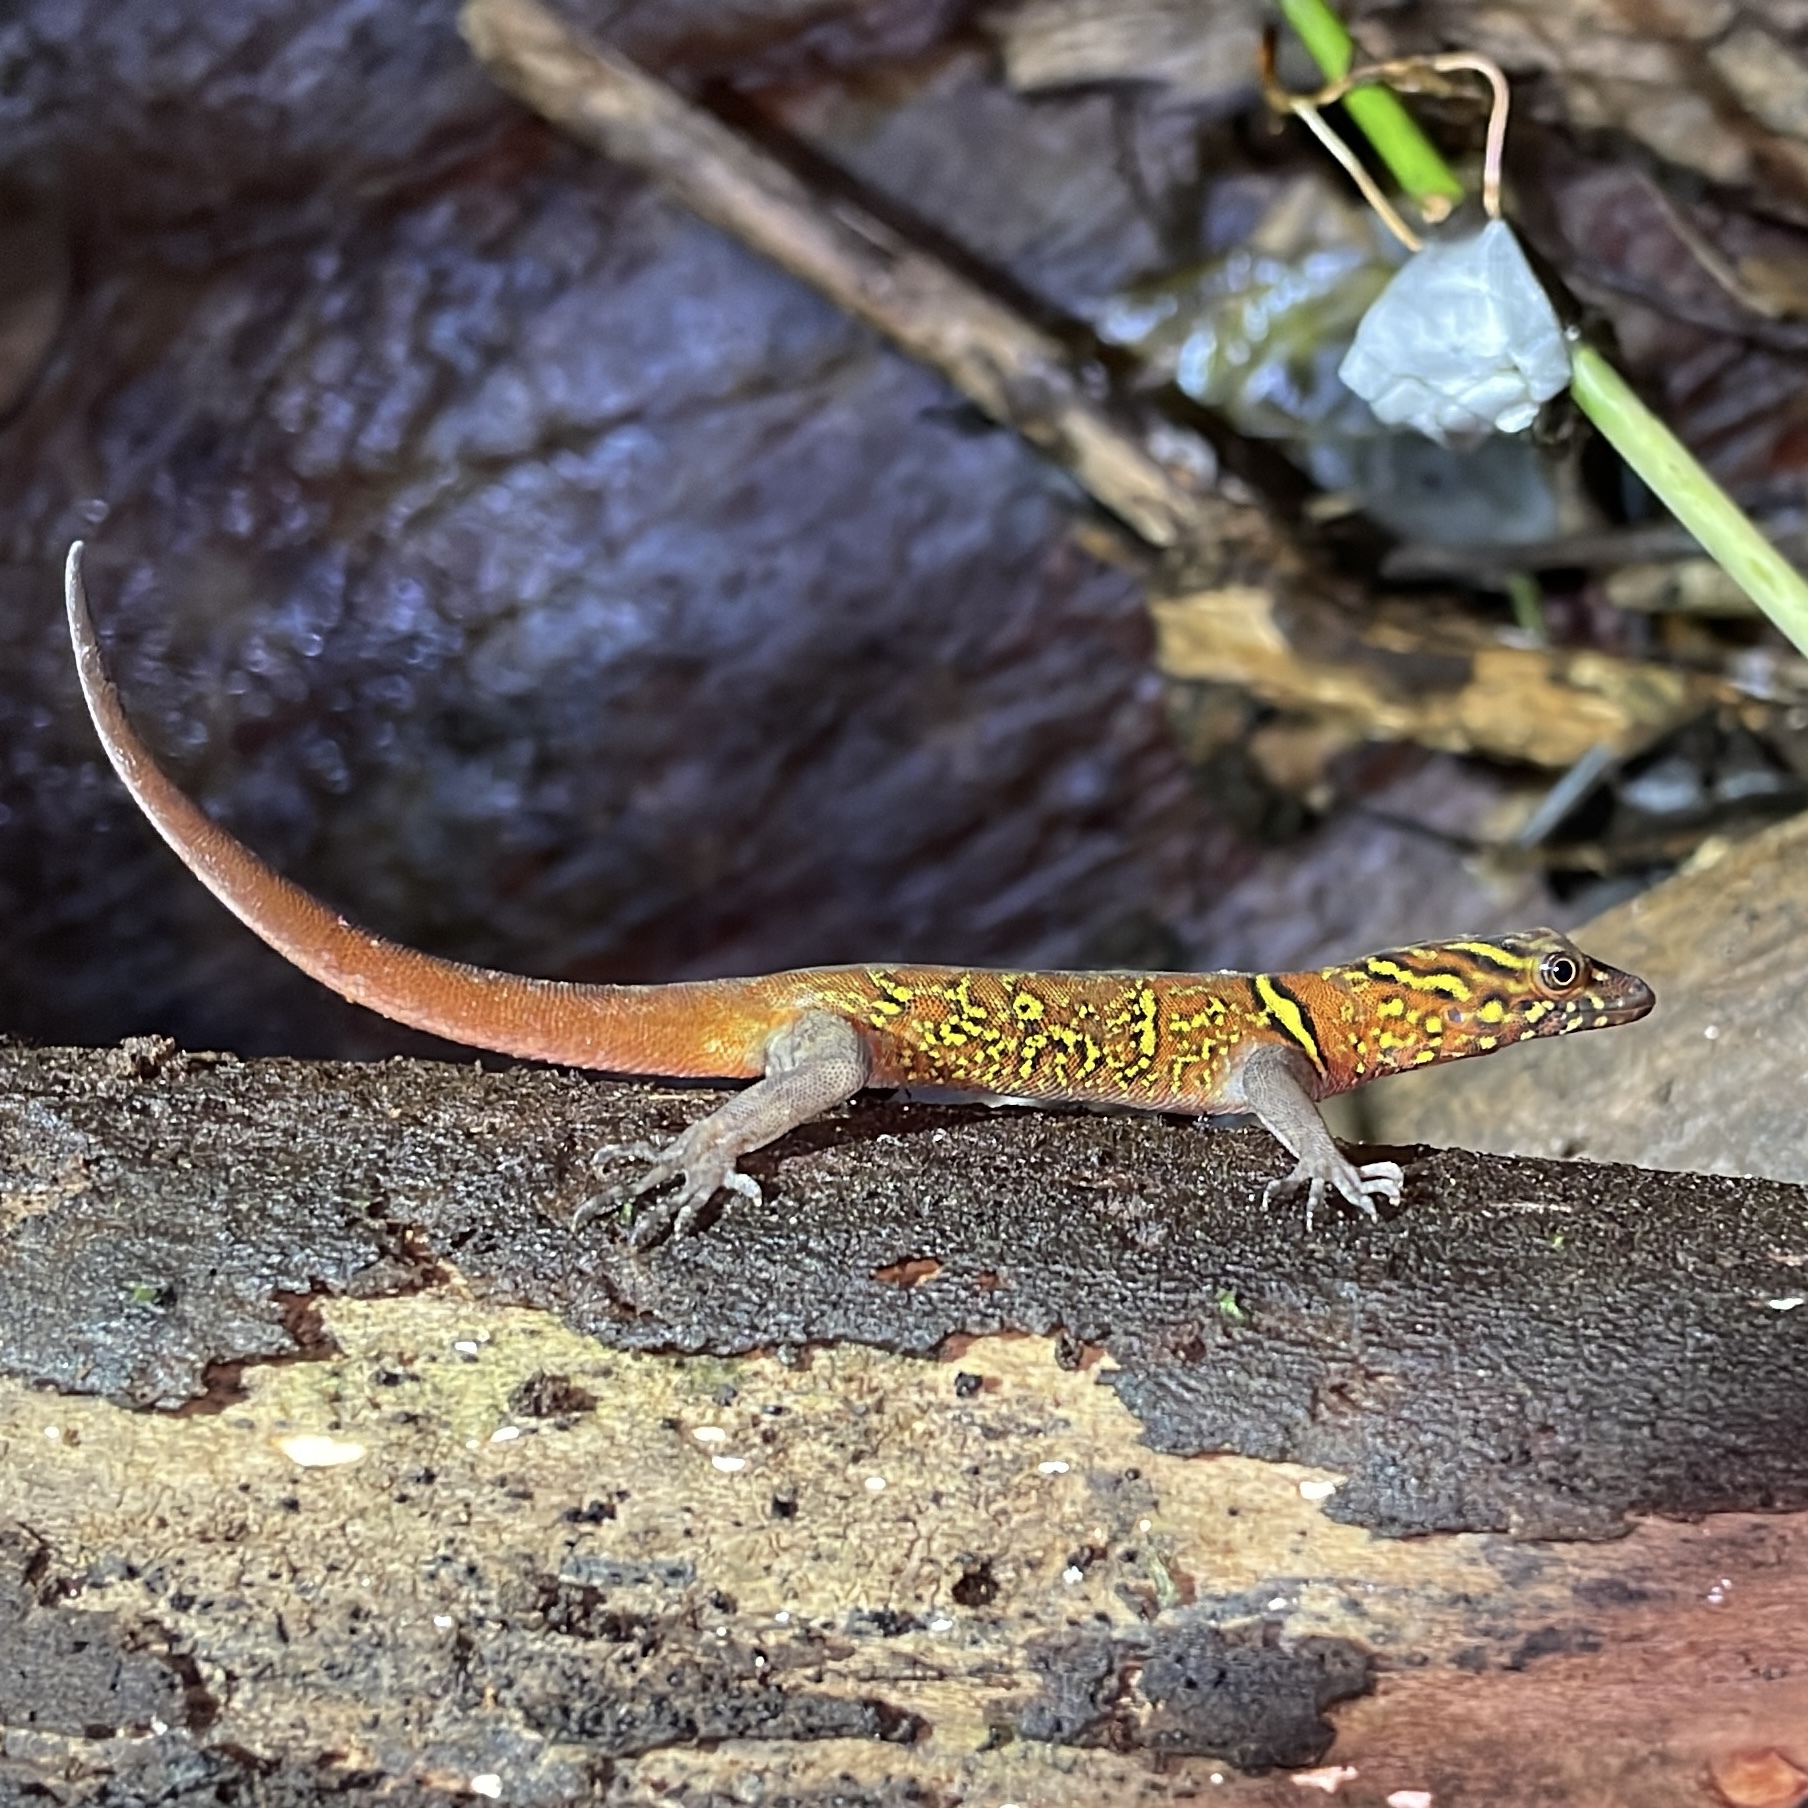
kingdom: Animalia
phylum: Chordata
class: Squamata
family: Sphaerodactylidae
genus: Gonatodes
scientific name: Gonatodes ceciliae
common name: Brilliant south american gecko
